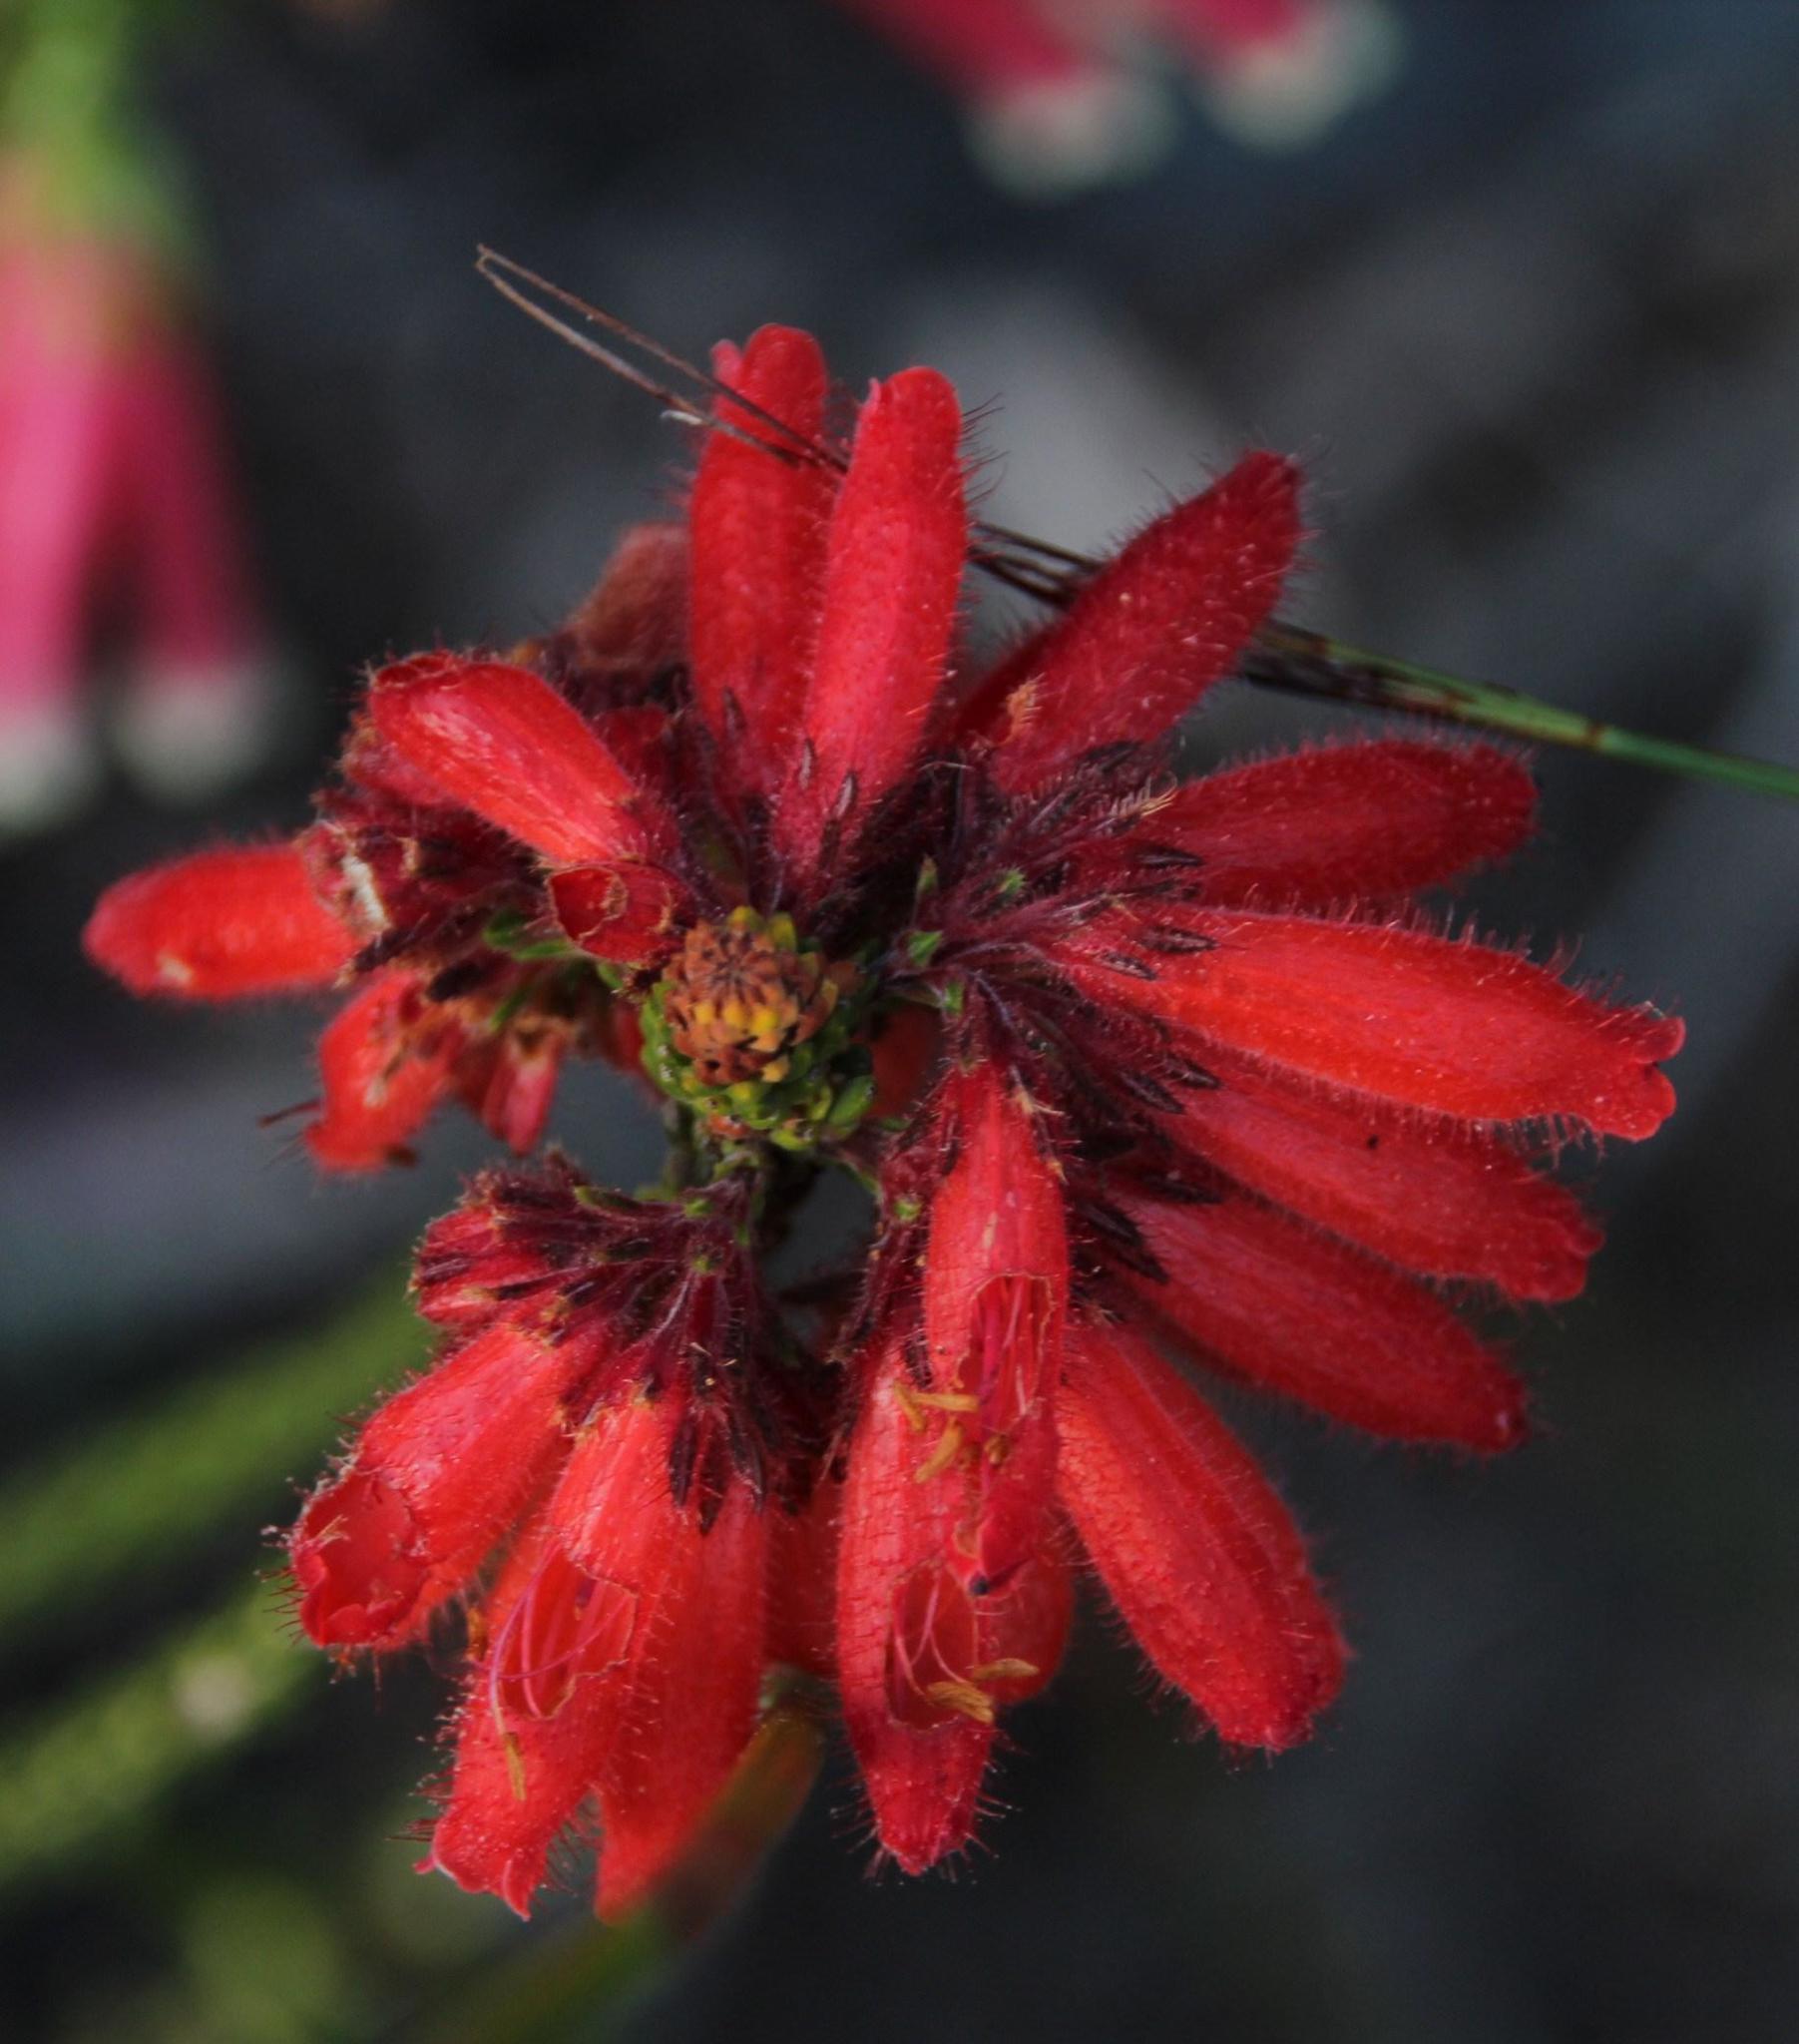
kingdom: Plantae
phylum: Tracheophyta
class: Magnoliopsida
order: Ericales
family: Ericaceae
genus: Erica
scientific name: Erica cerinthoides
